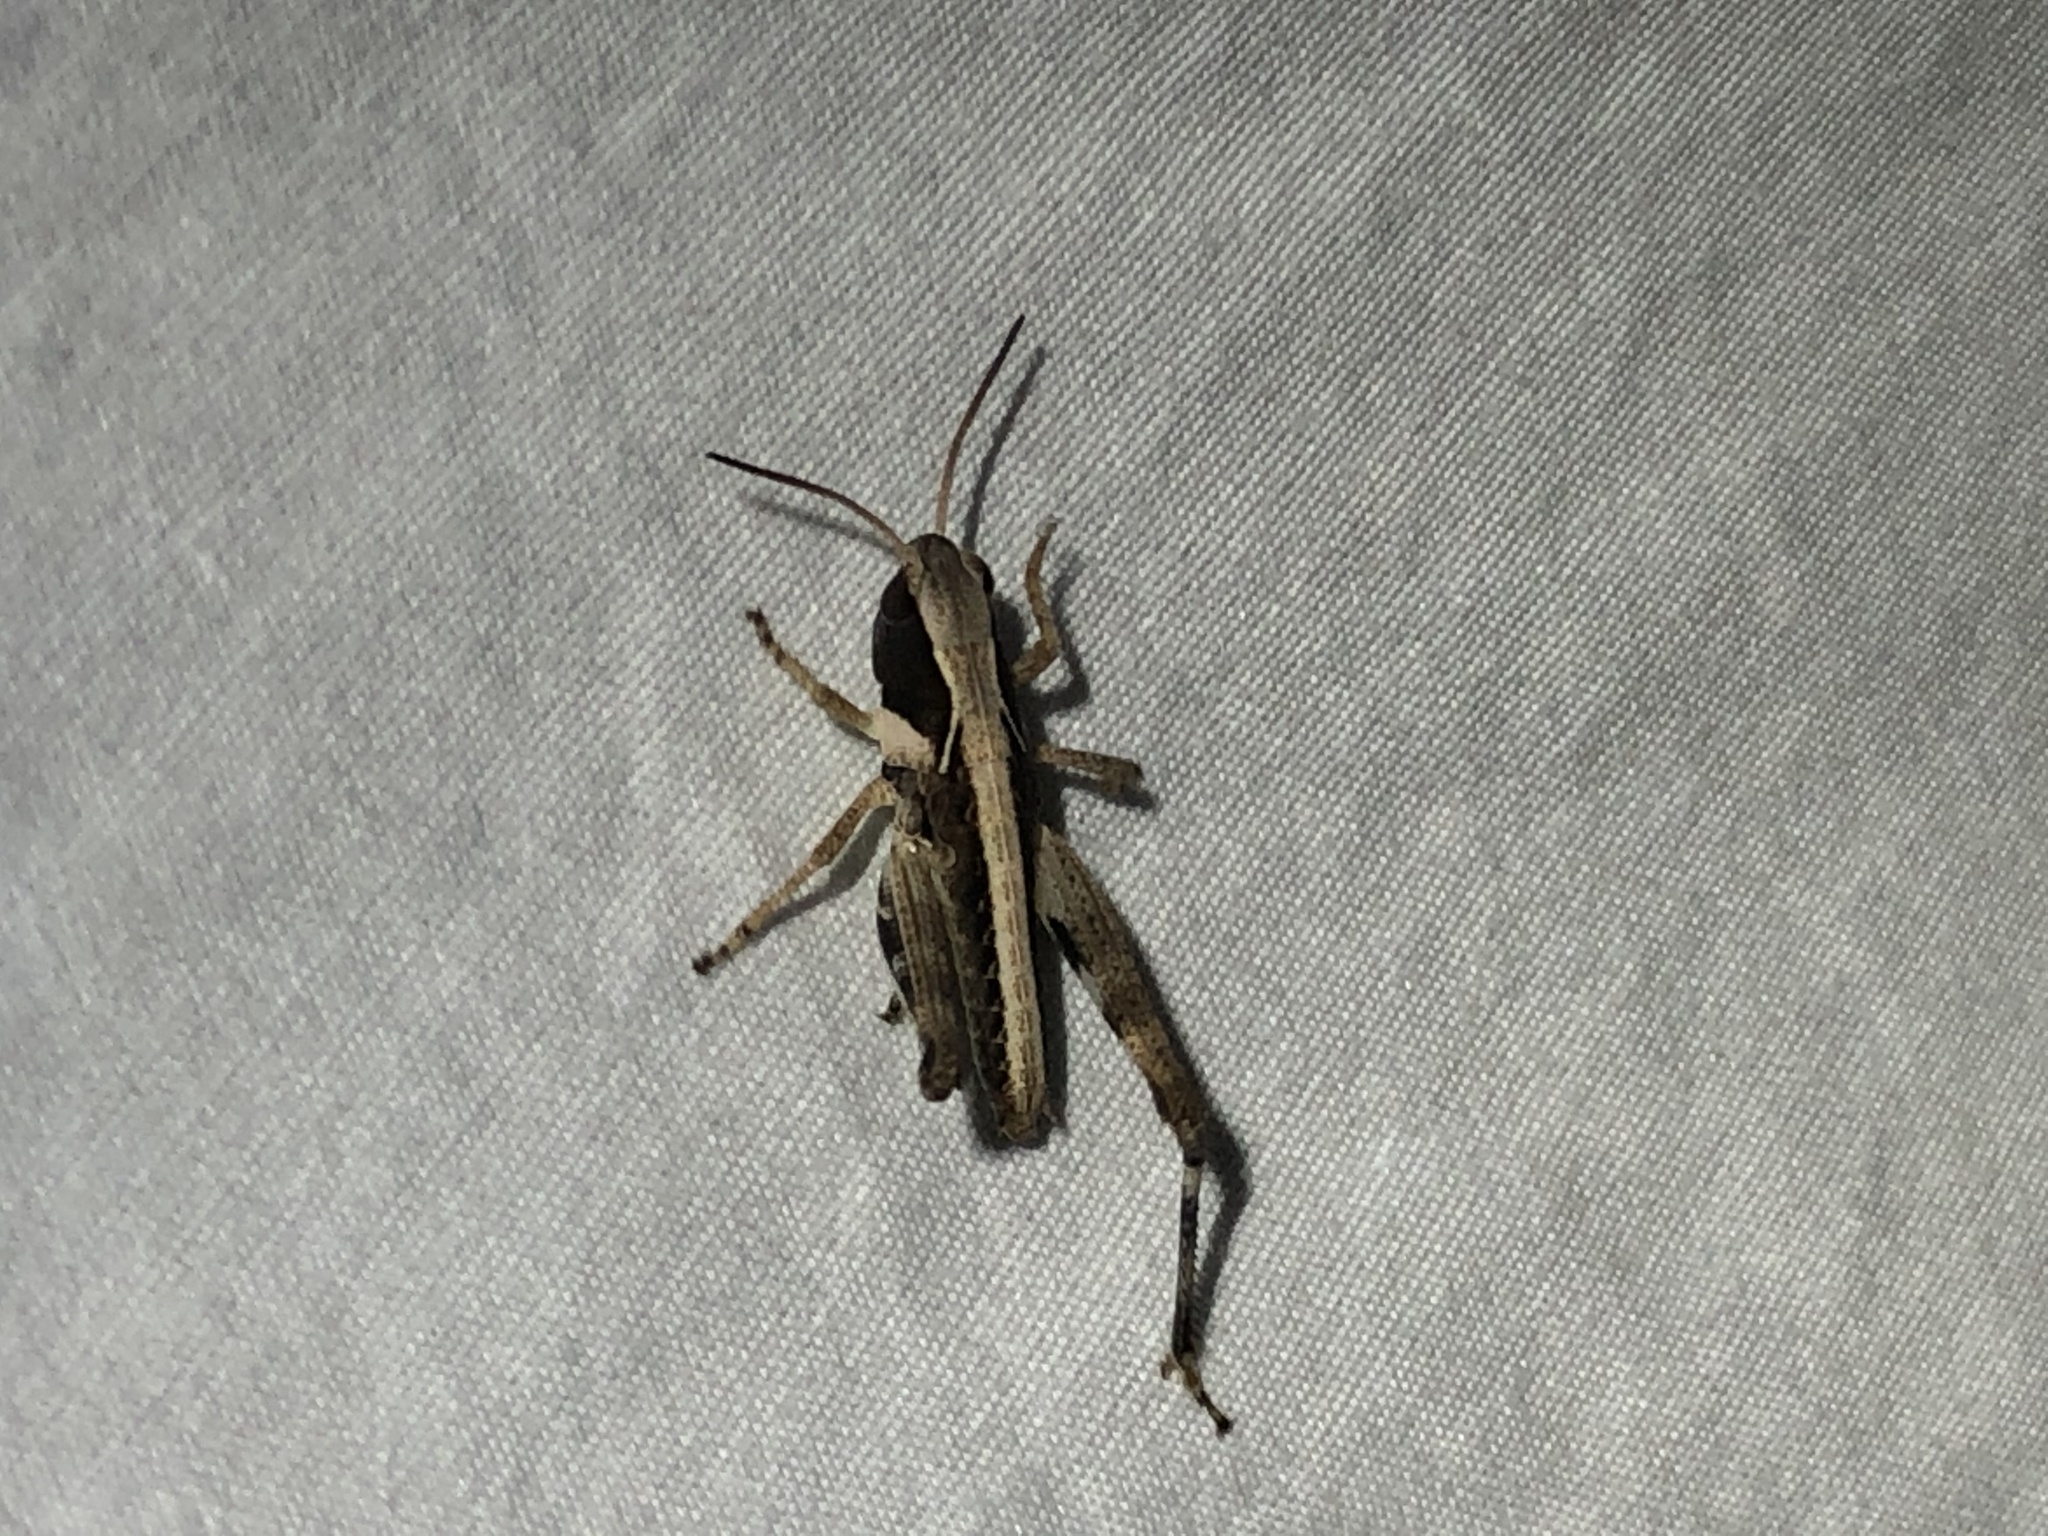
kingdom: Animalia
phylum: Arthropoda
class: Insecta
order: Orthoptera
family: Acrididae
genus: Boopedon
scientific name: Boopedon flaviventris
